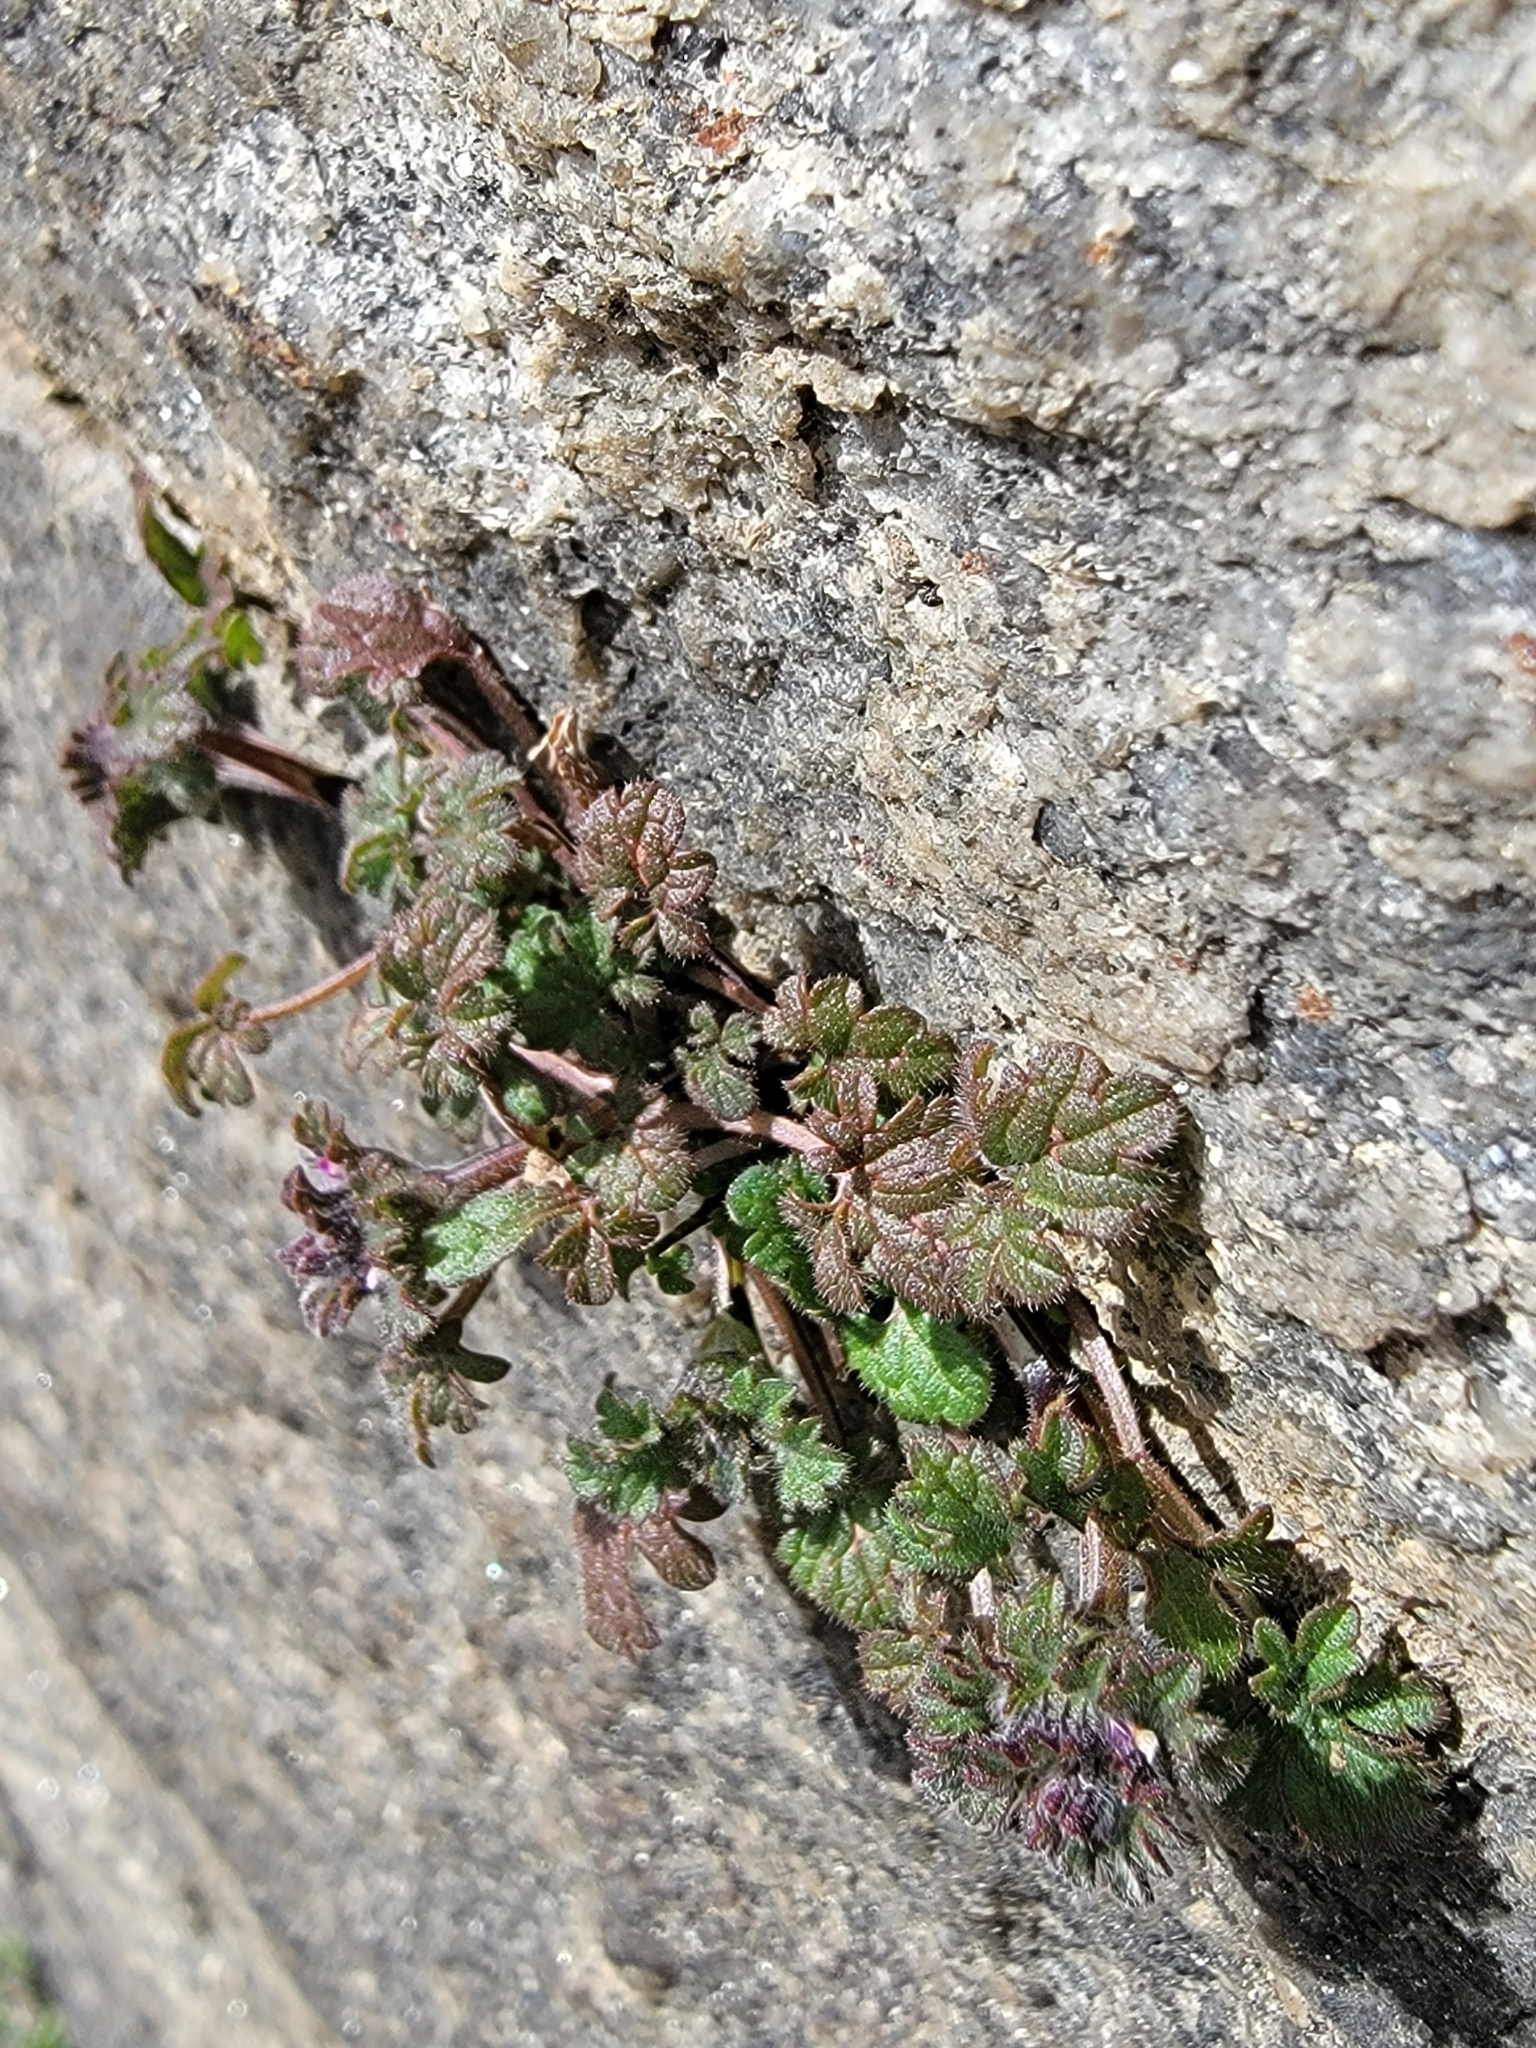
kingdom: Plantae
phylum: Tracheophyta
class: Magnoliopsida
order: Lamiales
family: Lamiaceae
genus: Lamium
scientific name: Lamium amplexicaule
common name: Henbit dead-nettle
